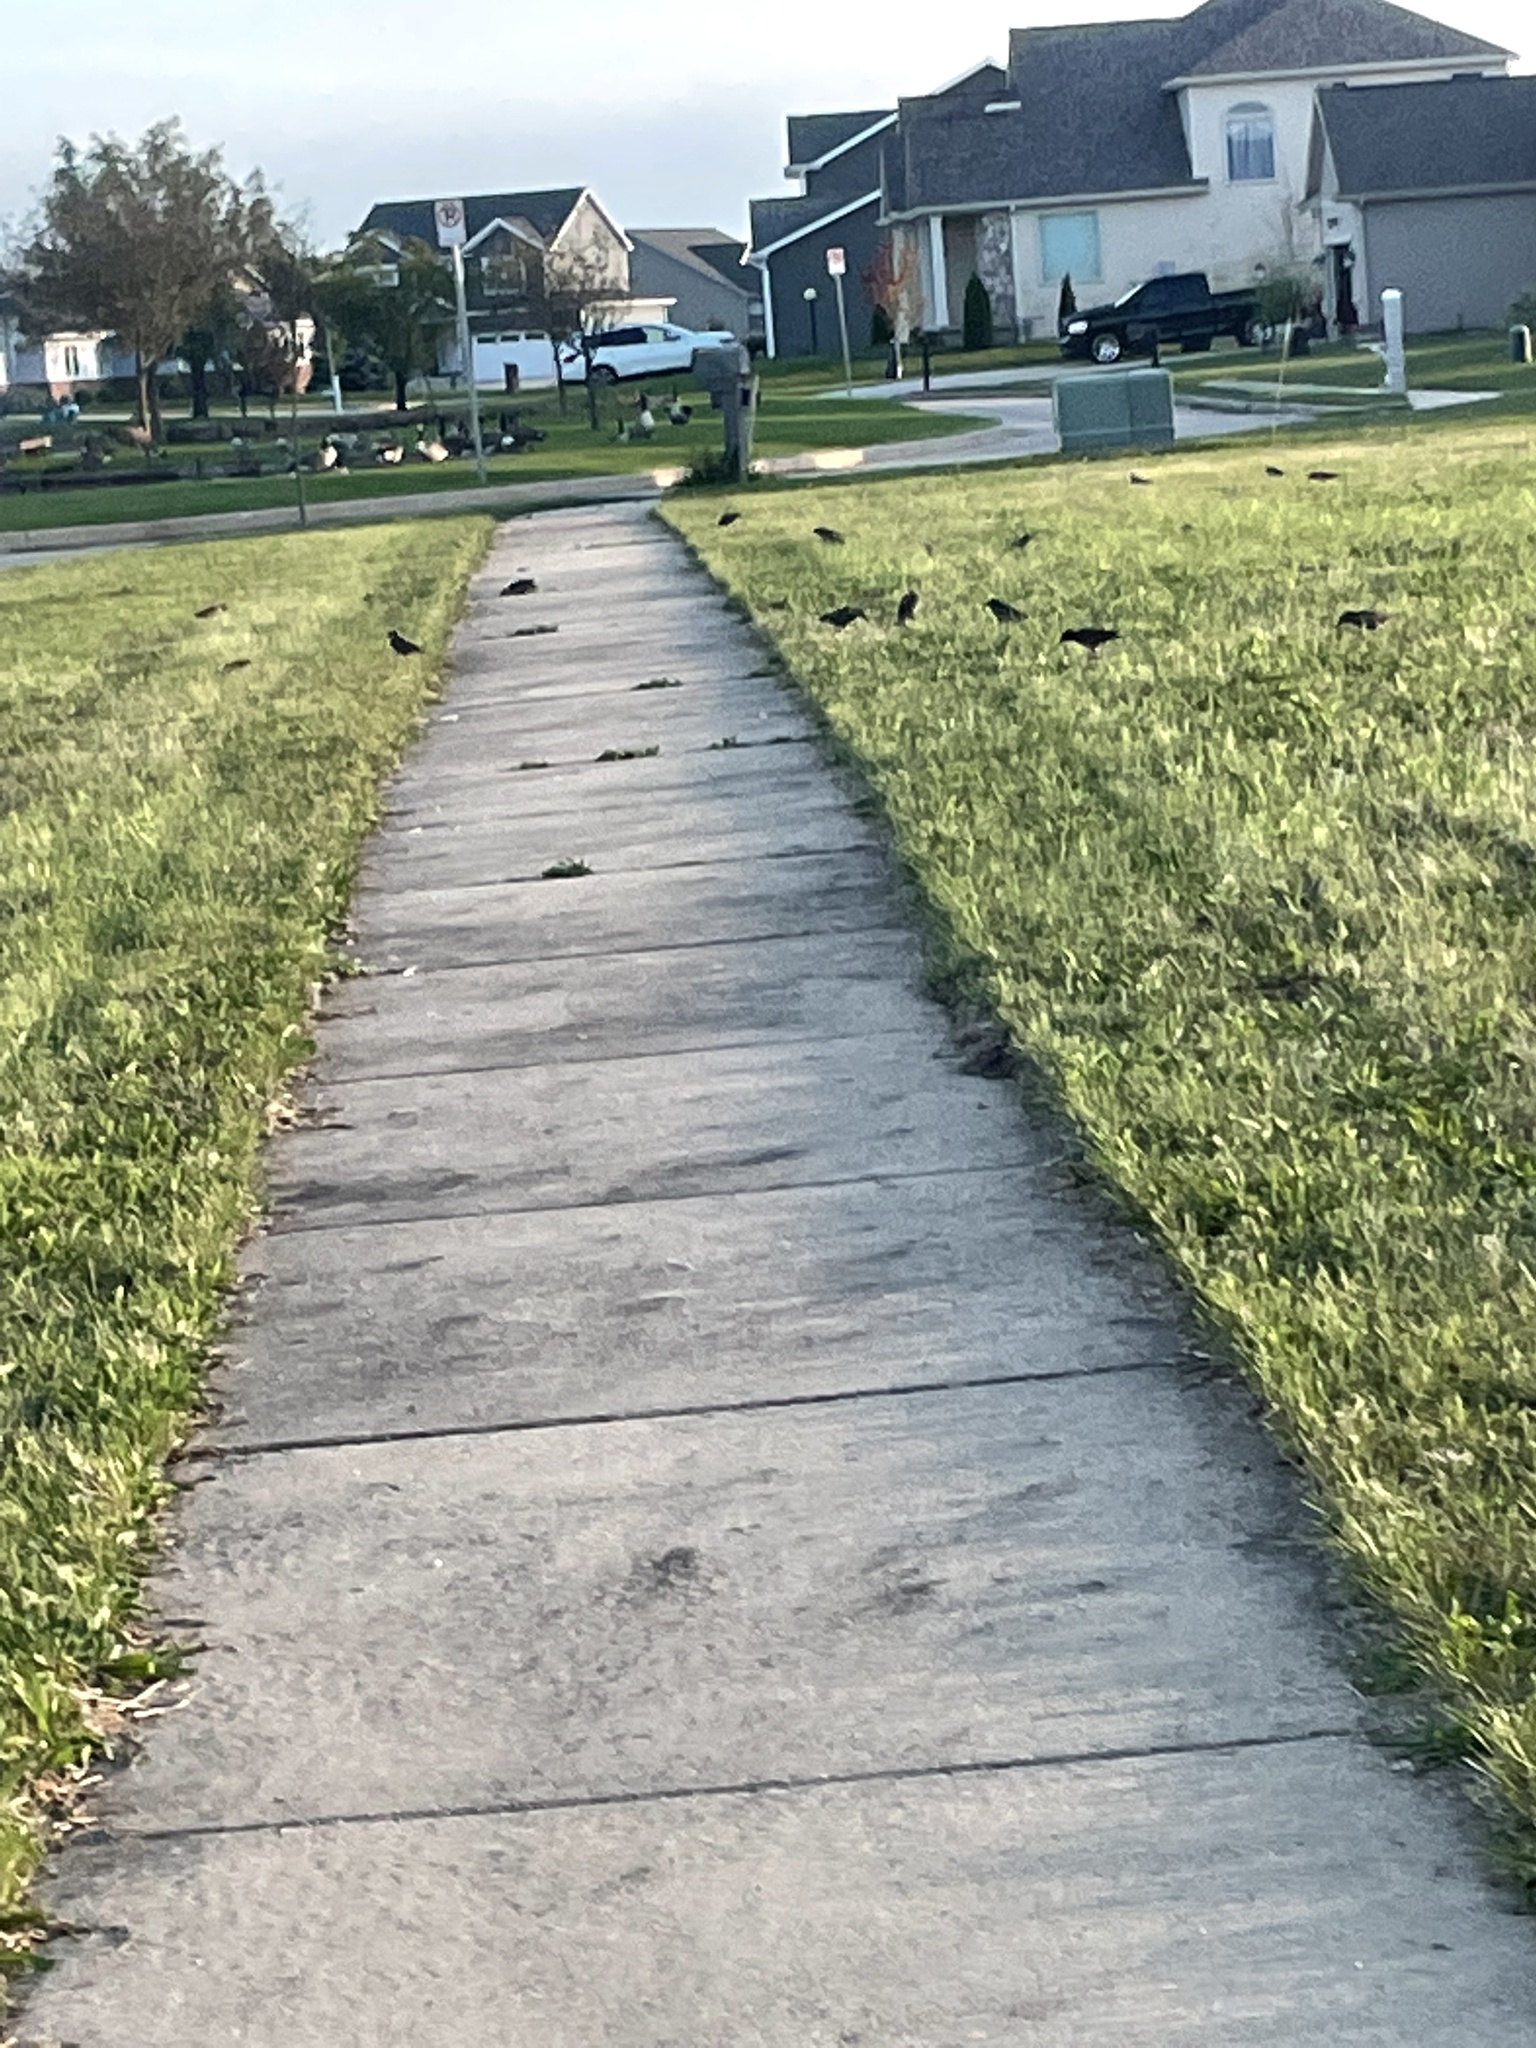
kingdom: Animalia
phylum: Chordata
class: Aves
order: Passeriformes
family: Sturnidae
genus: Sturnus
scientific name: Sturnus vulgaris
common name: Common starling
